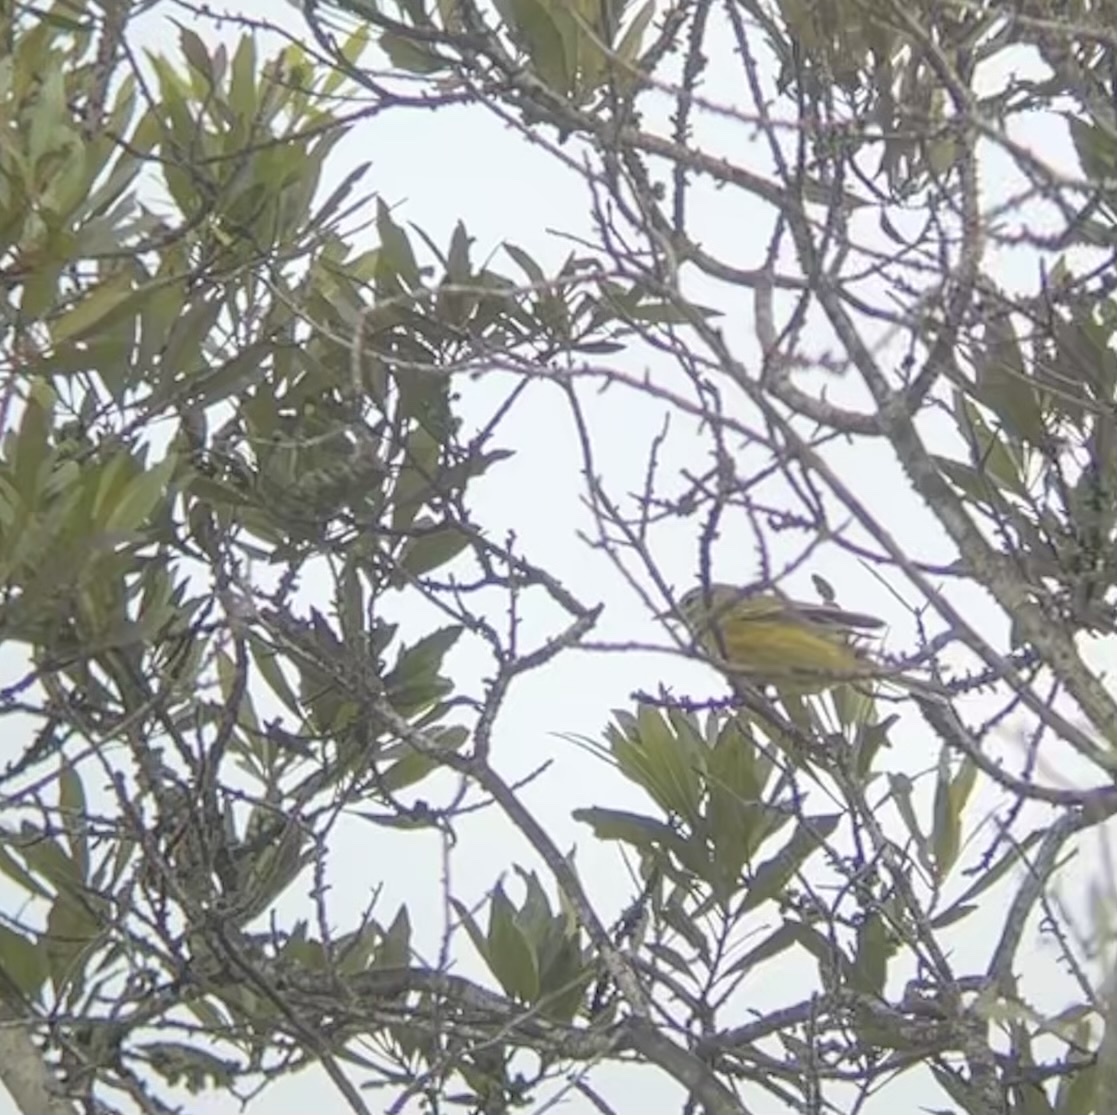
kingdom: Animalia
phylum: Chordata
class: Aves
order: Passeriformes
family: Parulidae
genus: Setophaga
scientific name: Setophaga discolor
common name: Prairie warbler
